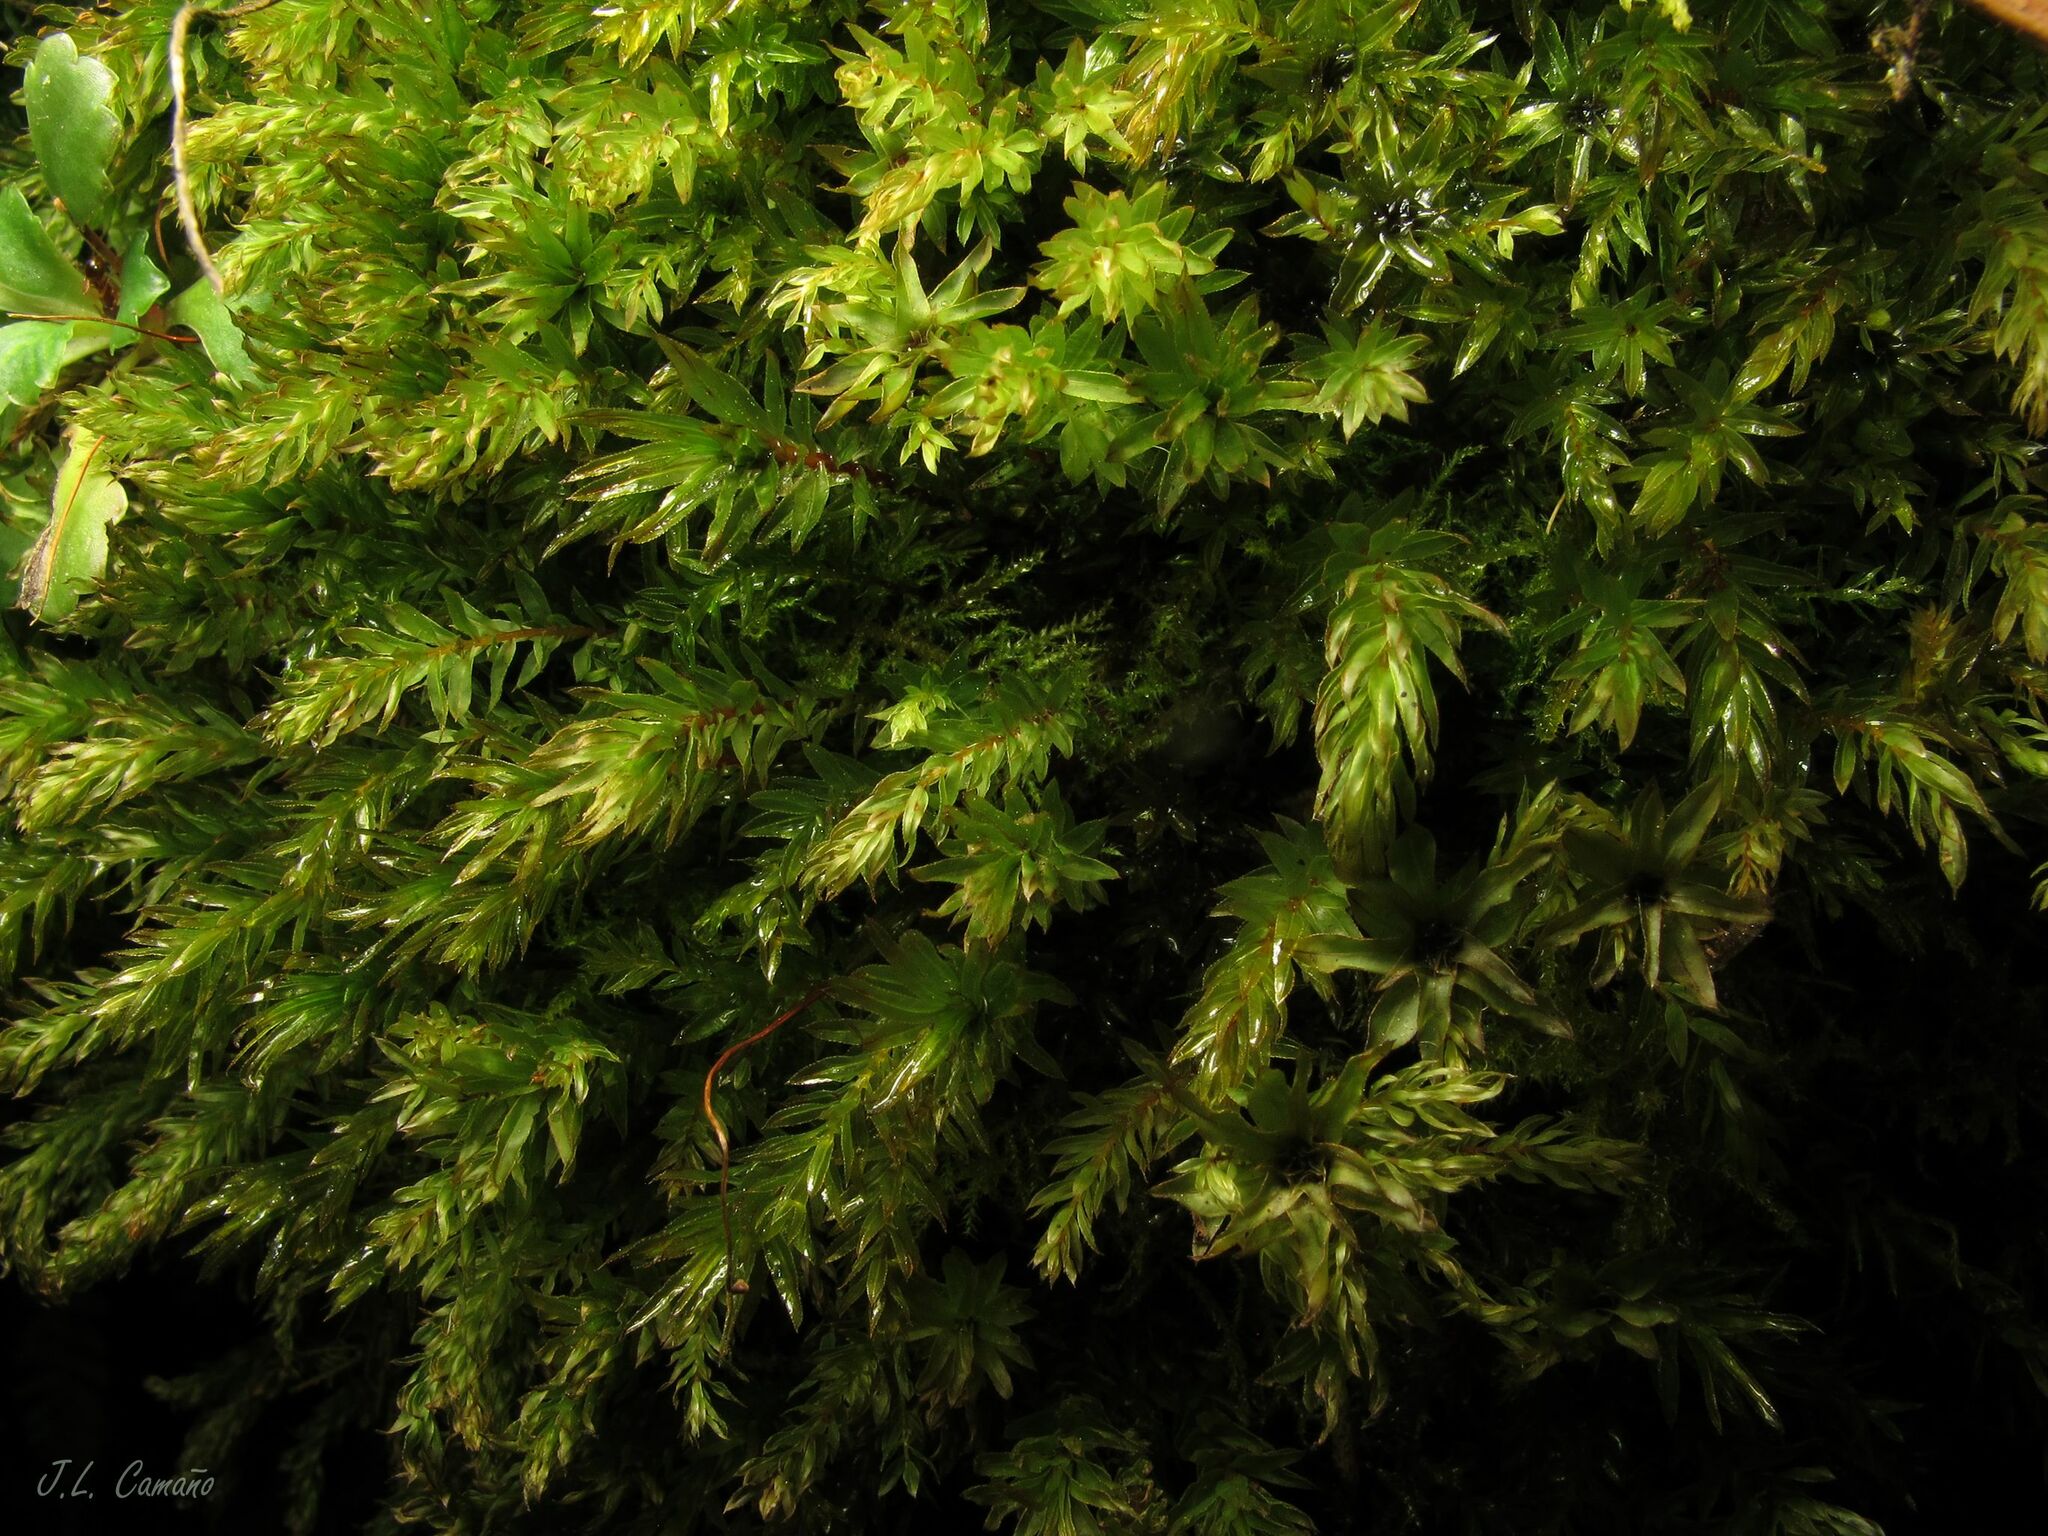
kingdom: Plantae
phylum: Bryophyta
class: Bryopsida
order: Bryales
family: Mniaceae
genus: Mnium
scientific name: Mnium hornum
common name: Swan's-neck leafy moss
